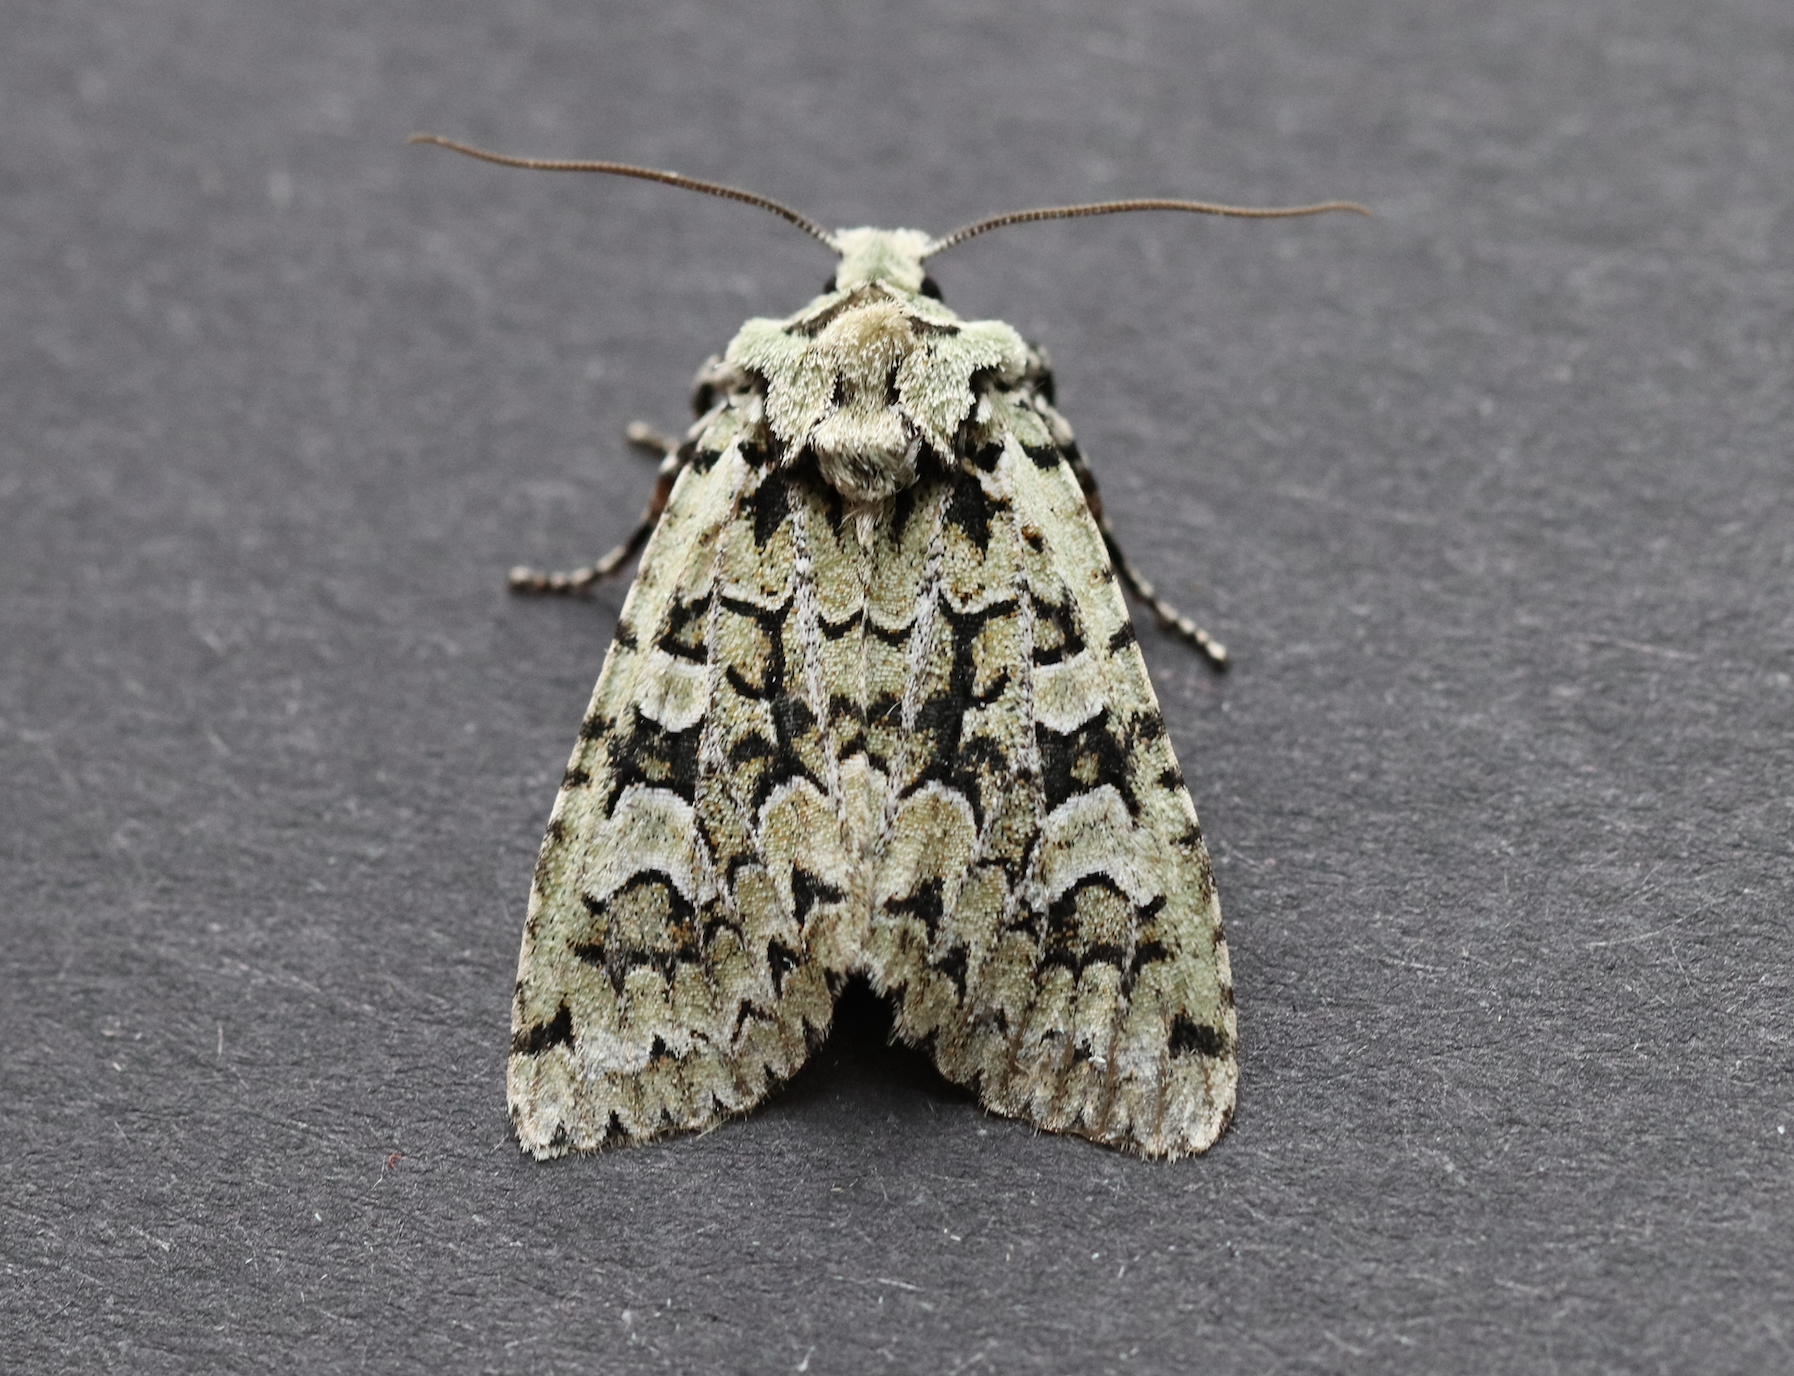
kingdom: Animalia
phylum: Arthropoda
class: Insecta
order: Lepidoptera
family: Noctuidae
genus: Griposia
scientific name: Griposia aprilina
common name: Merveille du jour
